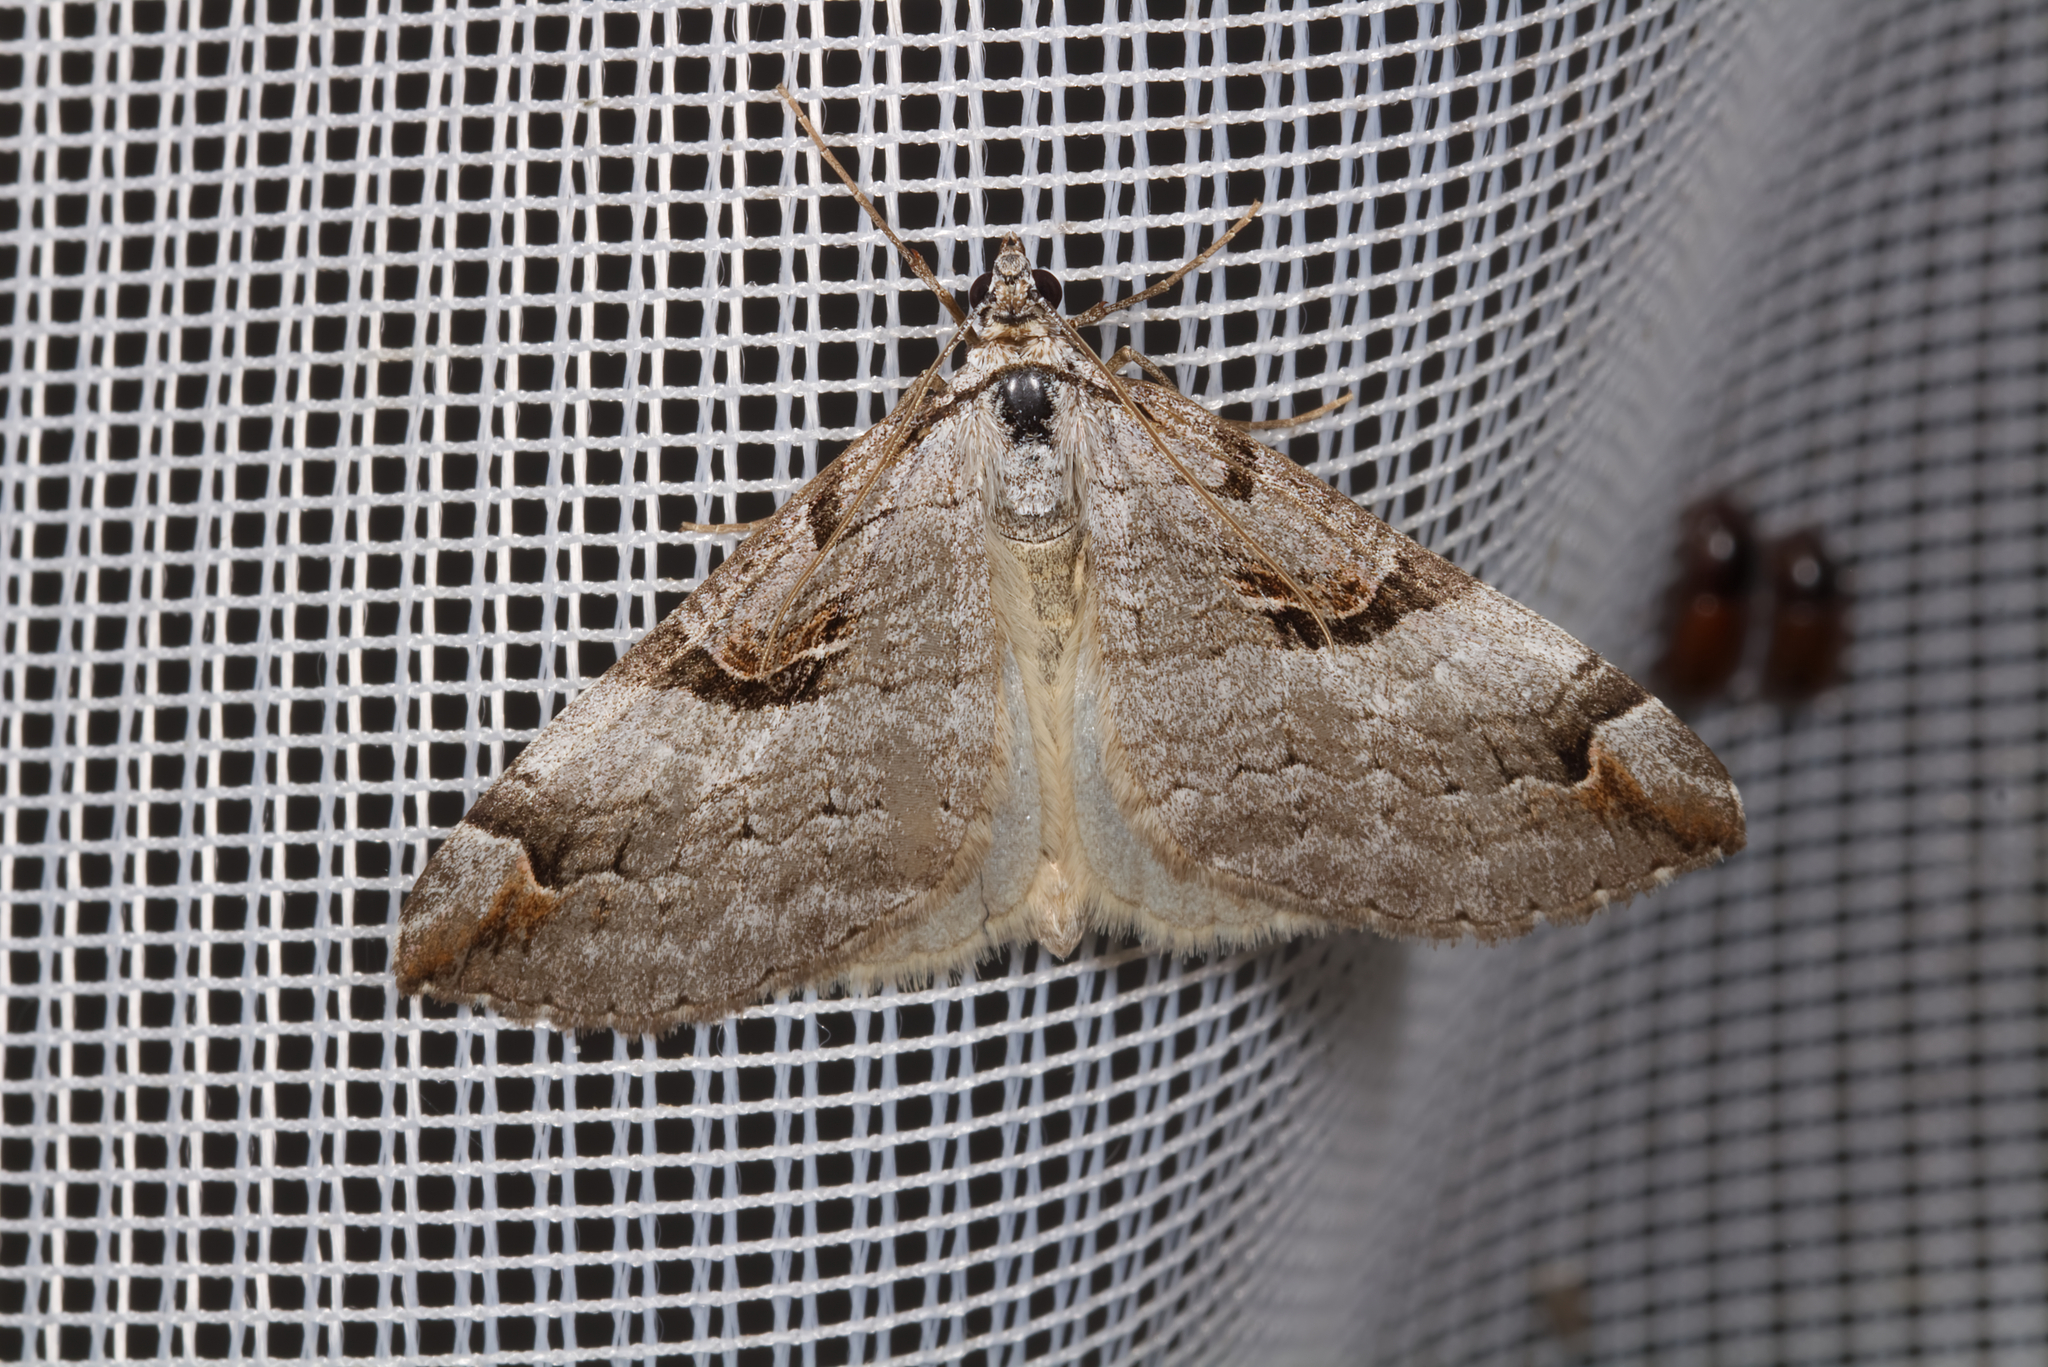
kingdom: Animalia
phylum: Arthropoda
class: Insecta
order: Lepidoptera
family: Geometridae
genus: Aplocera
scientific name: Aplocera praeformata
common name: Purple treble-bar
